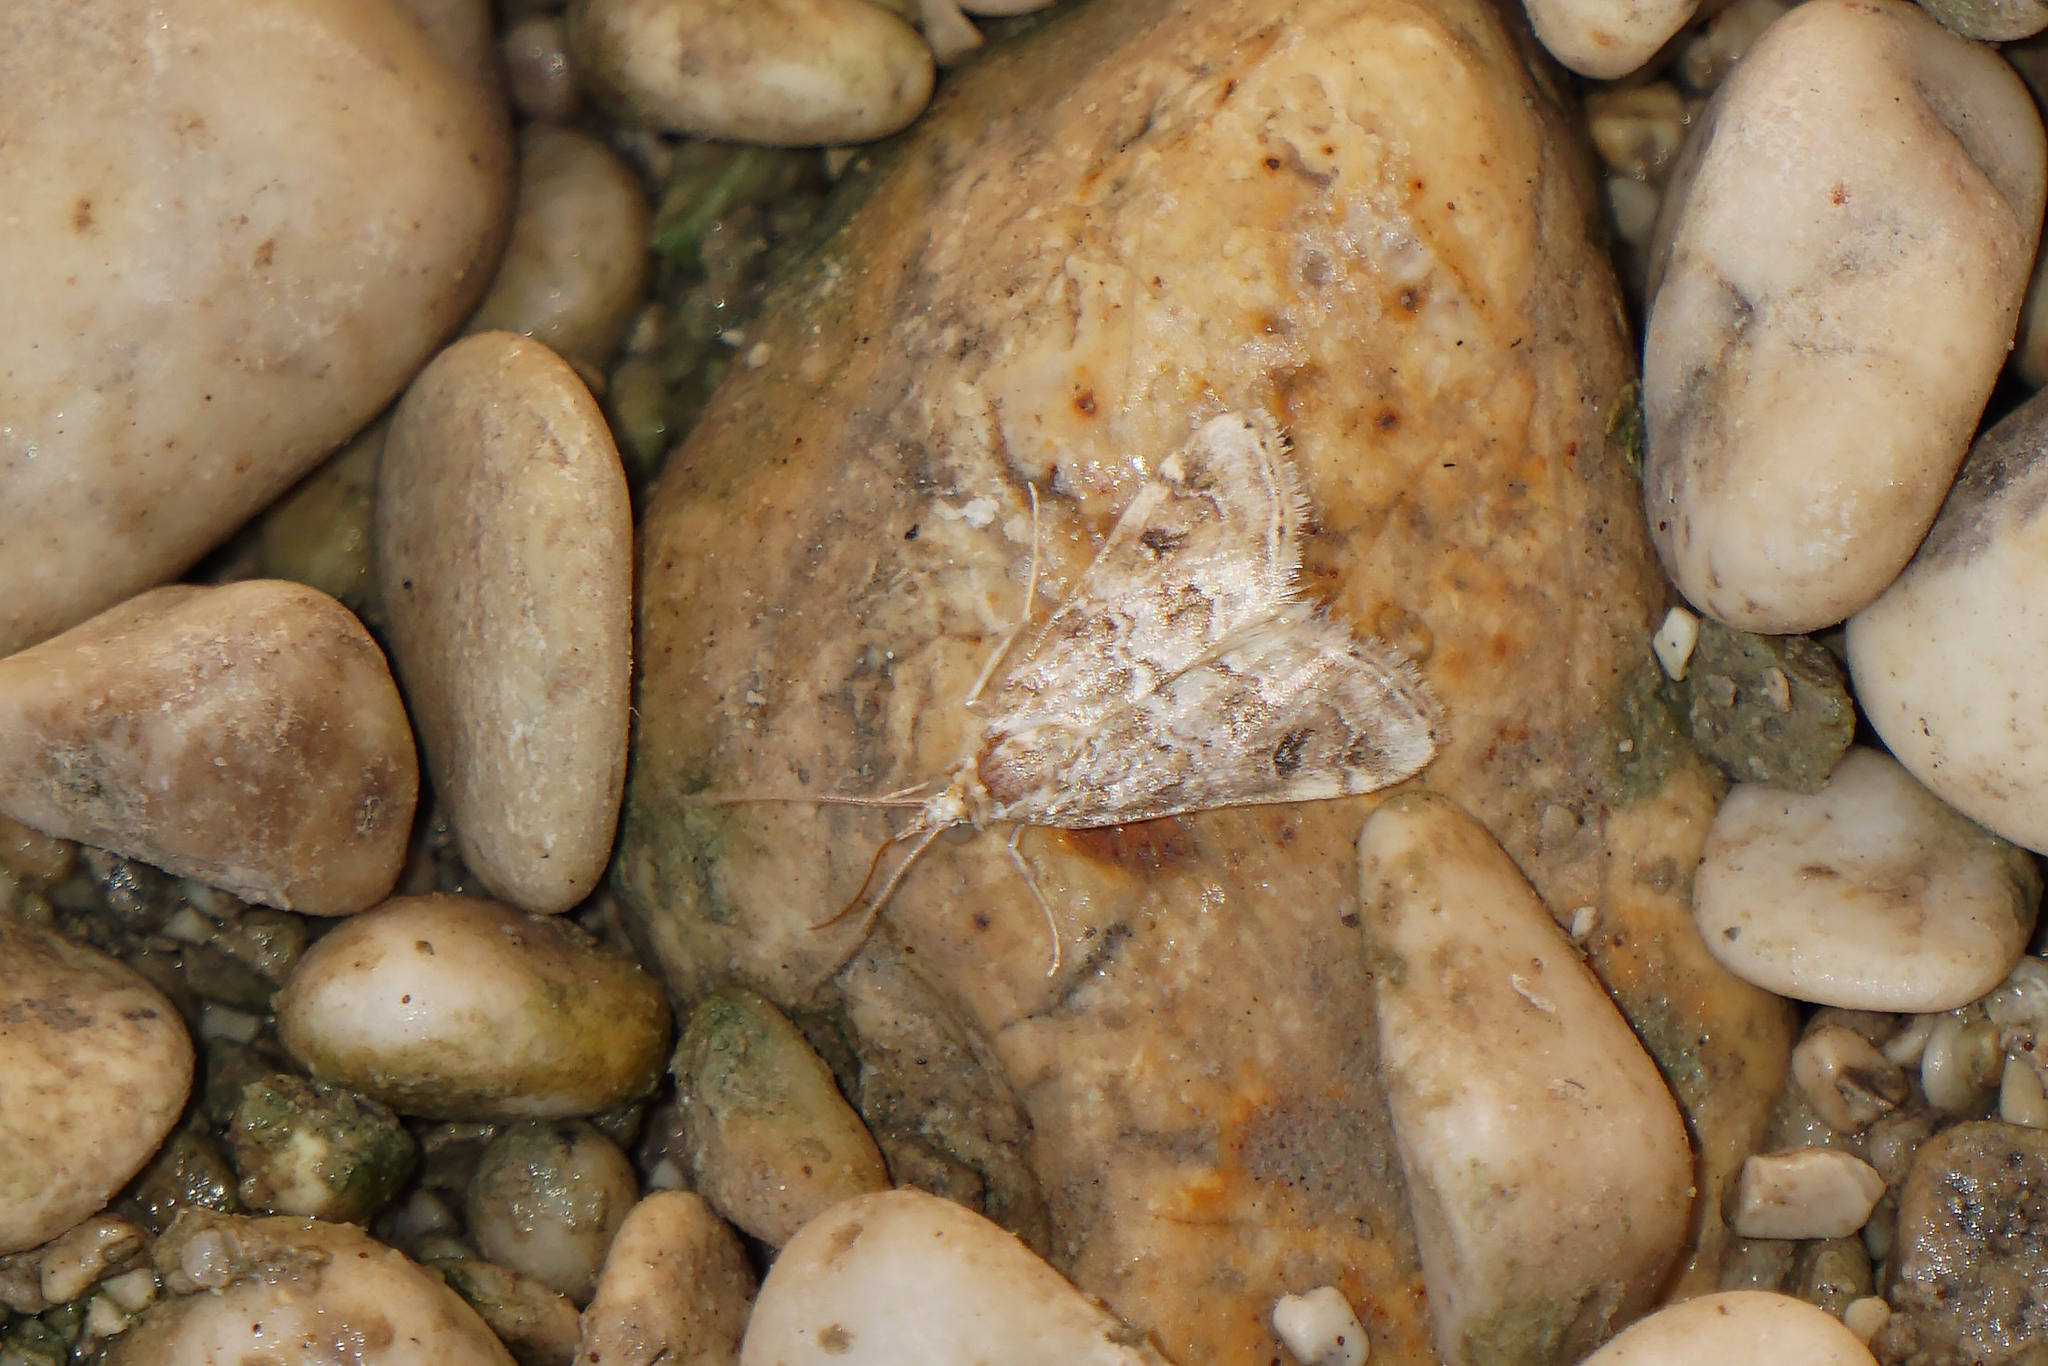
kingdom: Animalia
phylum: Arthropoda
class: Insecta
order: Lepidoptera
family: Crambidae
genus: Hellula
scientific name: Hellula undalis
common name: Cabbage webworm
